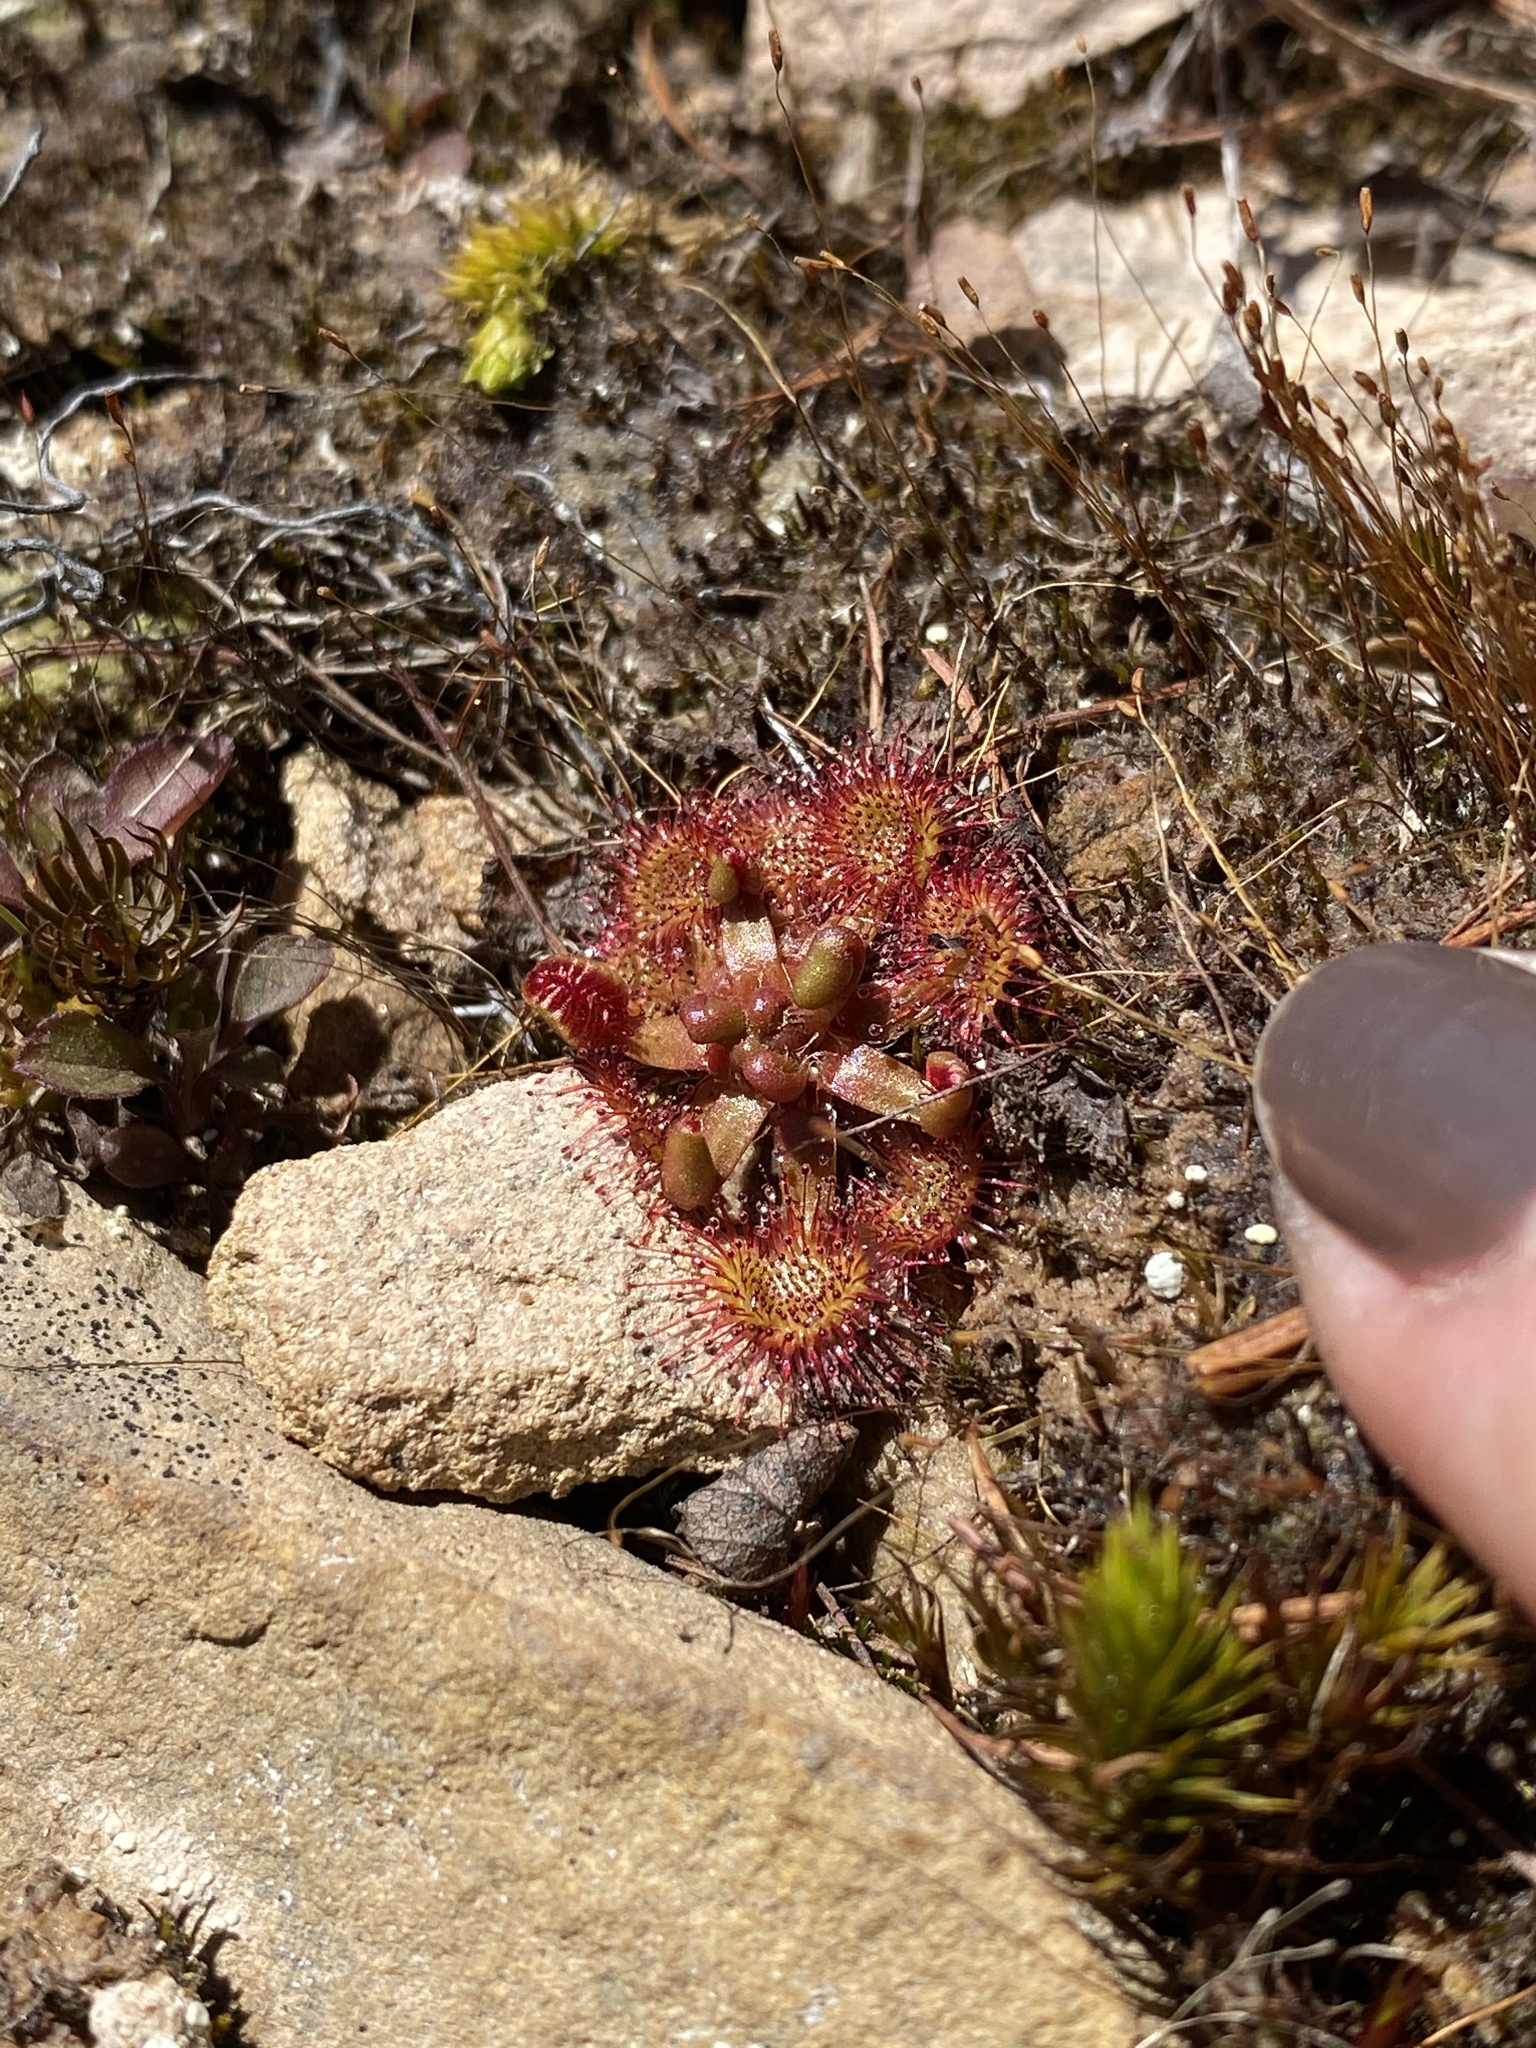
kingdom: Plantae
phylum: Tracheophyta
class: Magnoliopsida
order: Caryophyllales
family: Droseraceae
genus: Drosera
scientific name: Drosera rotundifolia
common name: Round-leaved sundew
